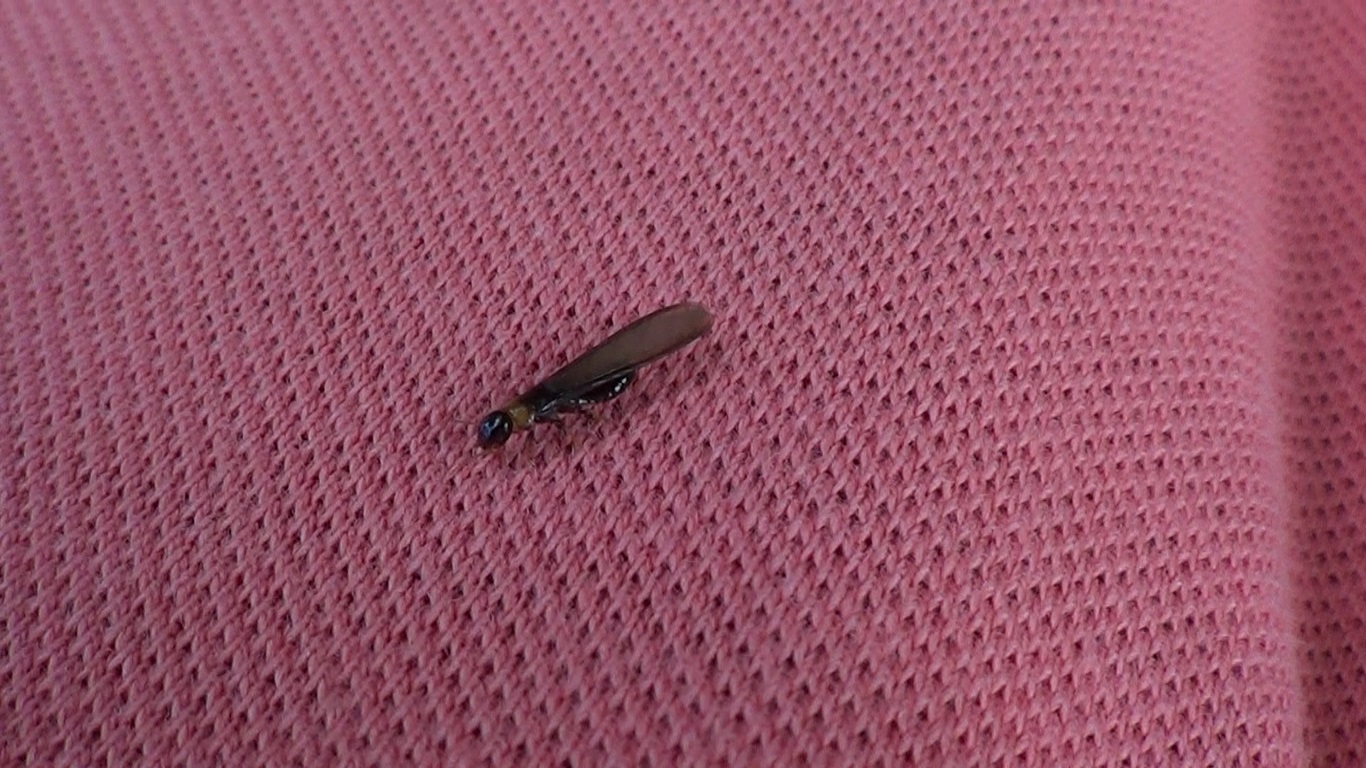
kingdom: Animalia
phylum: Arthropoda
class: Insecta
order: Blattodea
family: Kalotermitidae
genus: Kalotermes
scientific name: Kalotermes flavicollis
